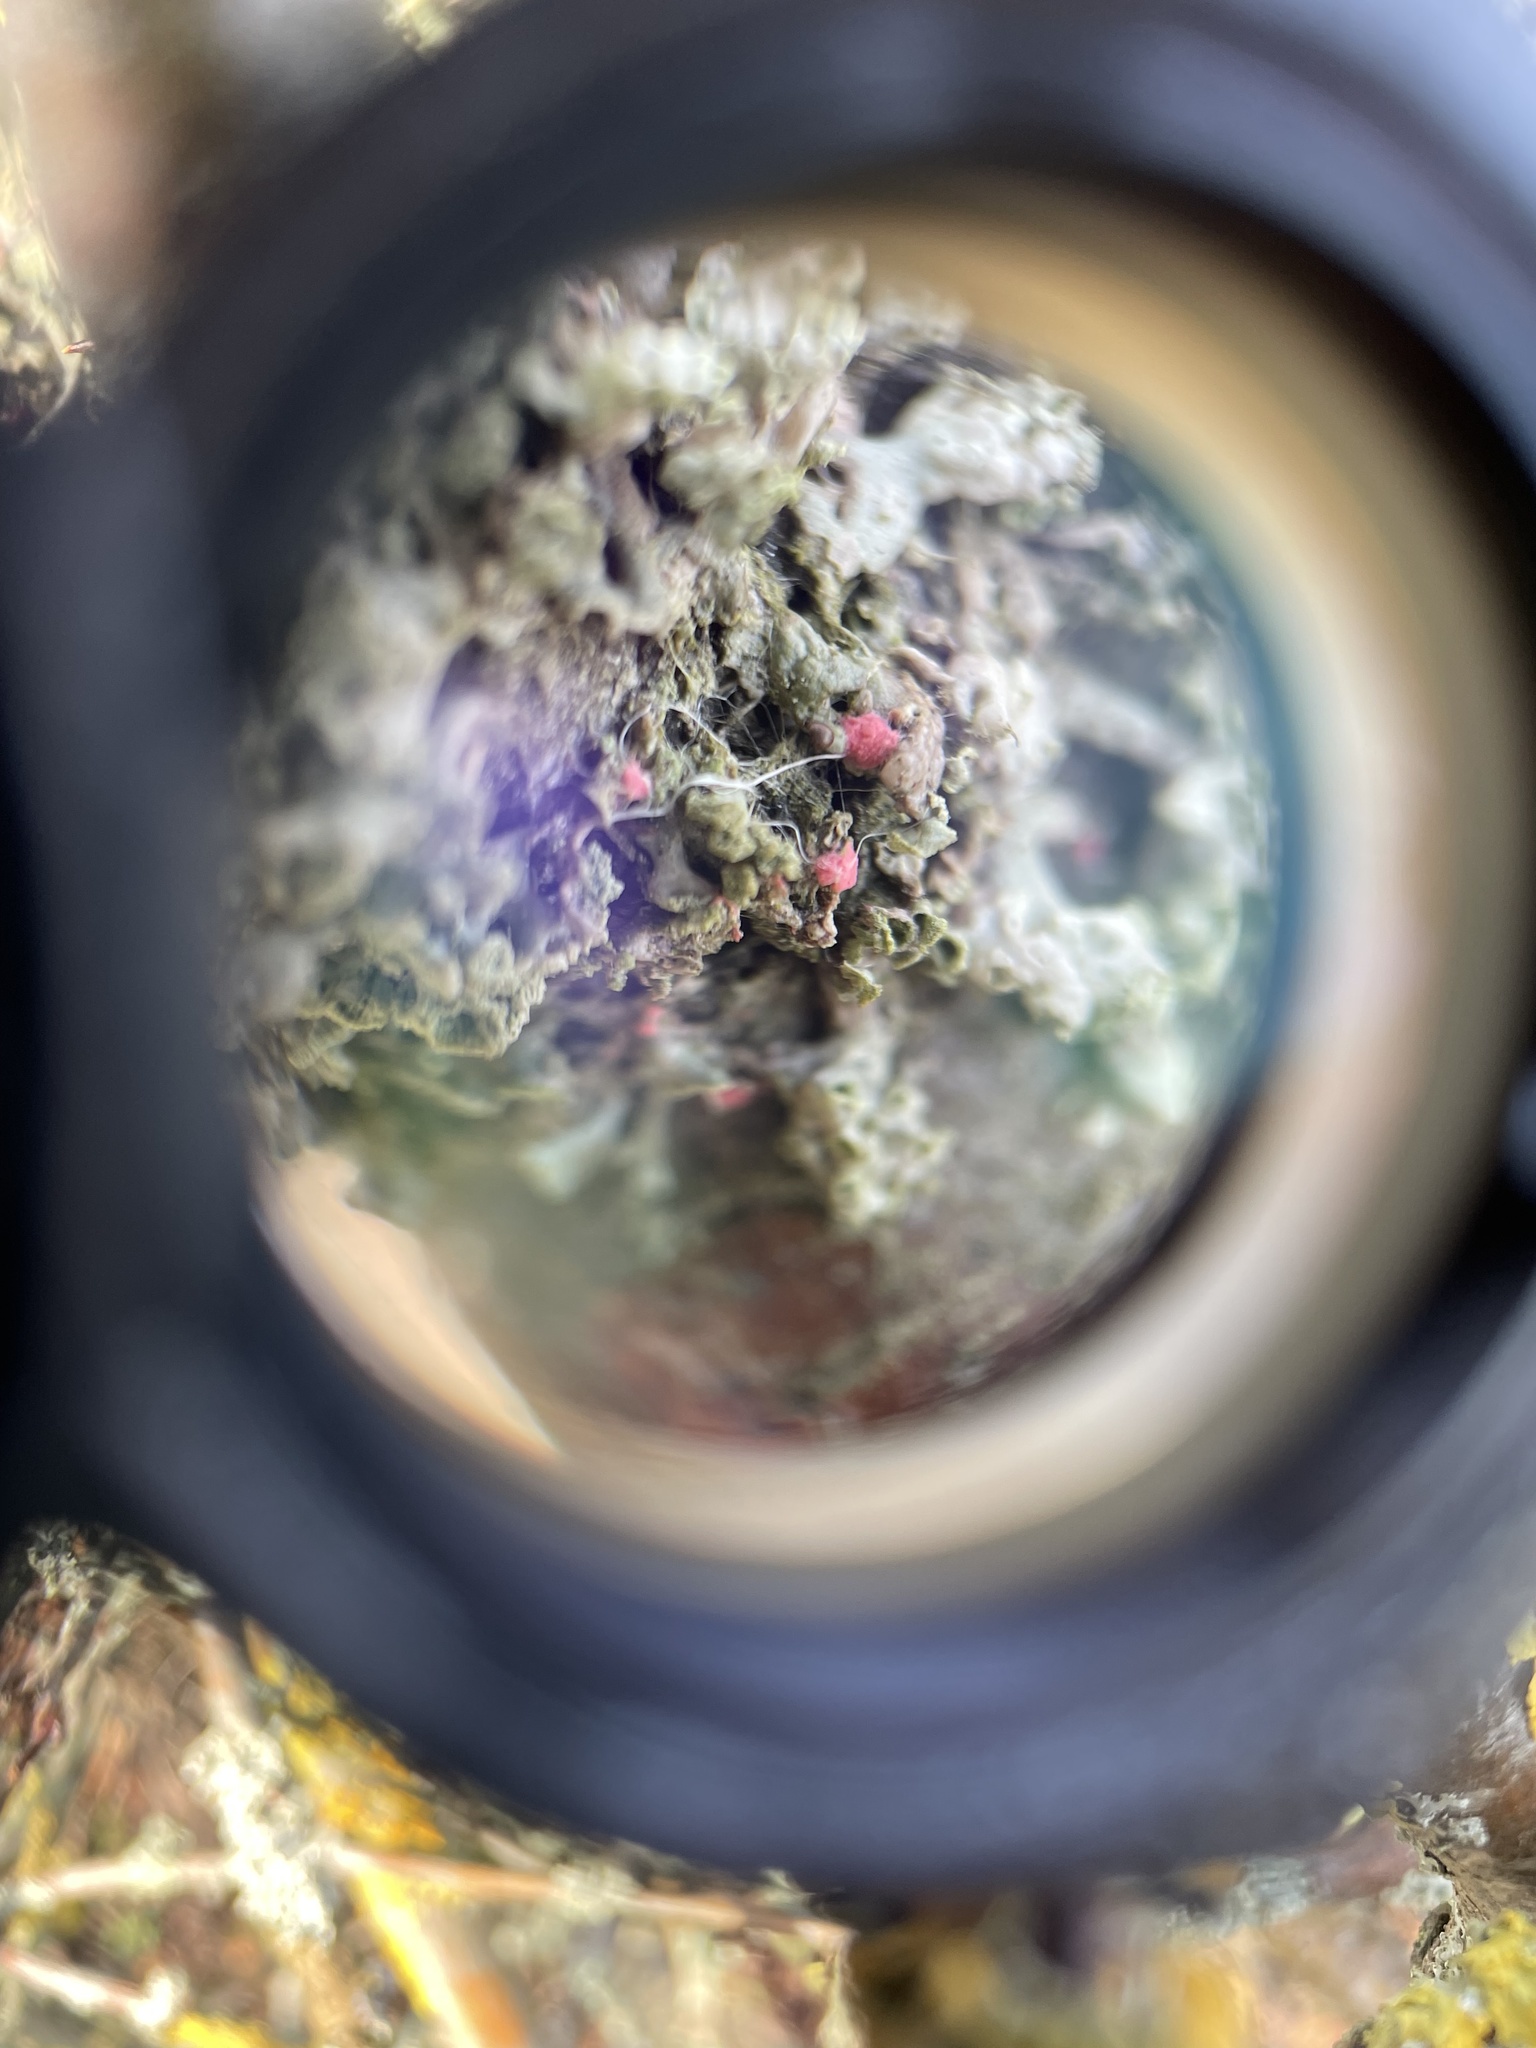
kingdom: Fungi
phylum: Ascomycota
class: Sordariomycetes
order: Hypocreales
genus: Illosporiopsis
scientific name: Illosporiopsis christiansenii
